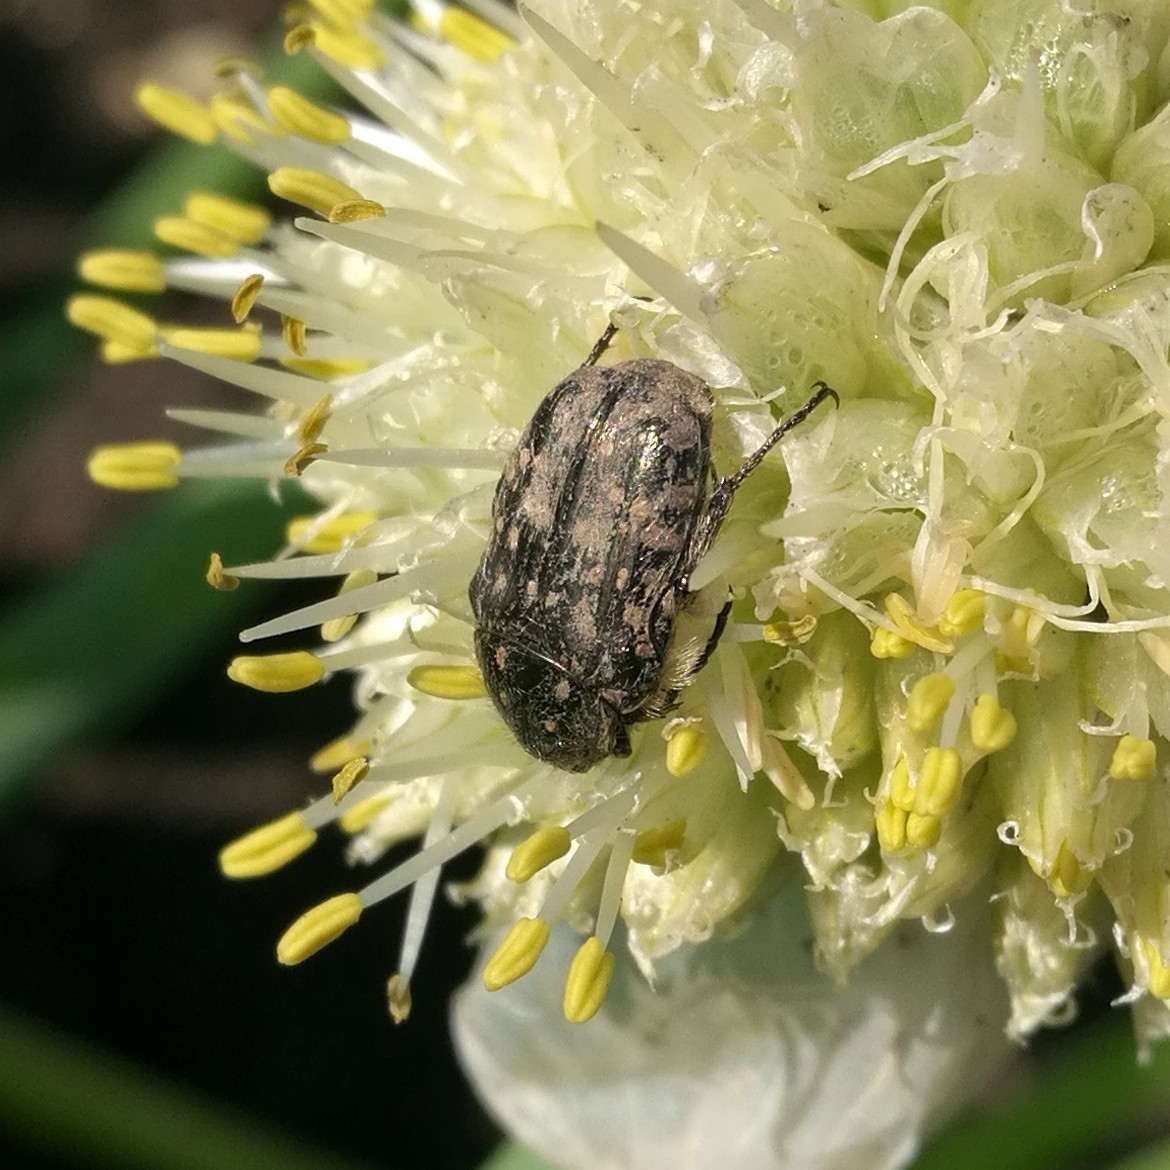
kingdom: Animalia
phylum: Arthropoda
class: Insecta
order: Coleoptera
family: Scarabaeidae
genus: Oxythyrea
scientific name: Oxythyrea funesta
